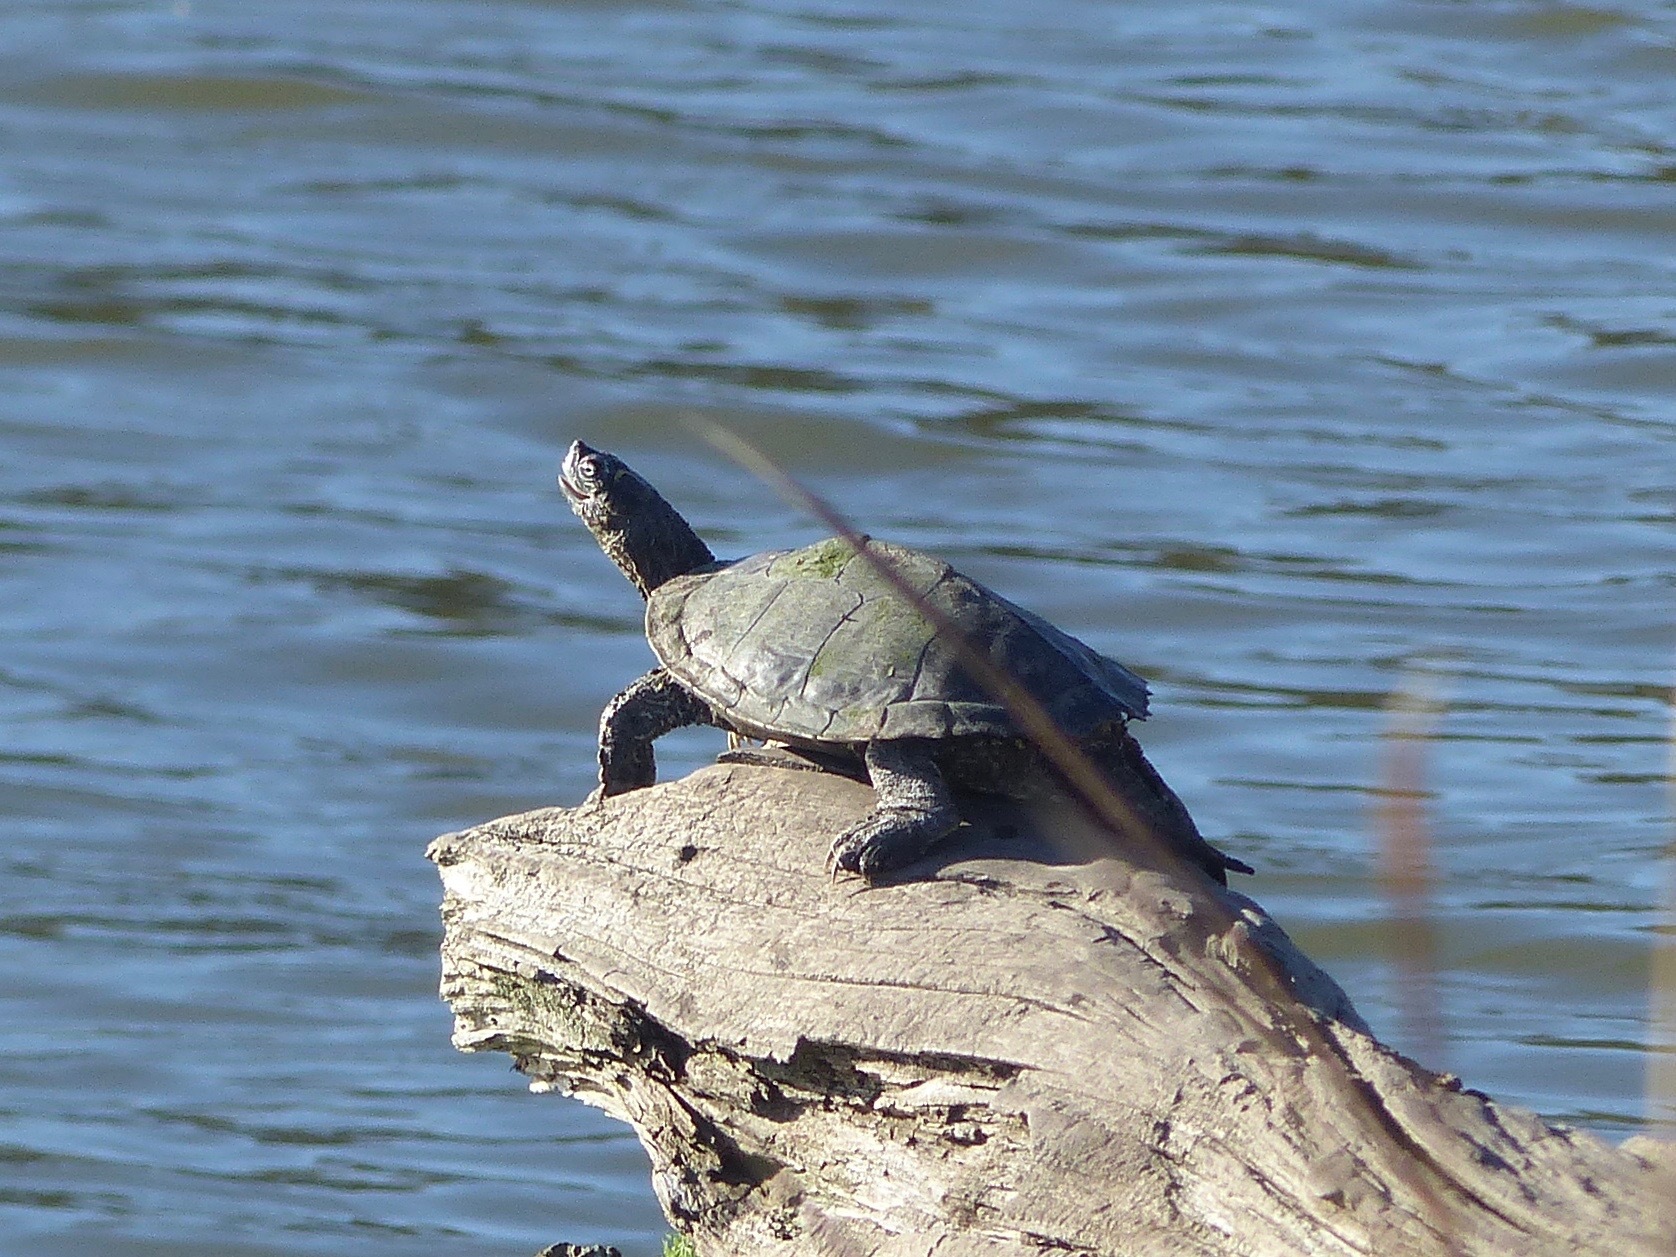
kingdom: Animalia
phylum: Chordata
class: Testudines
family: Emydidae
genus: Graptemys
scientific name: Graptemys pseudogeographica
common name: False map turtle
